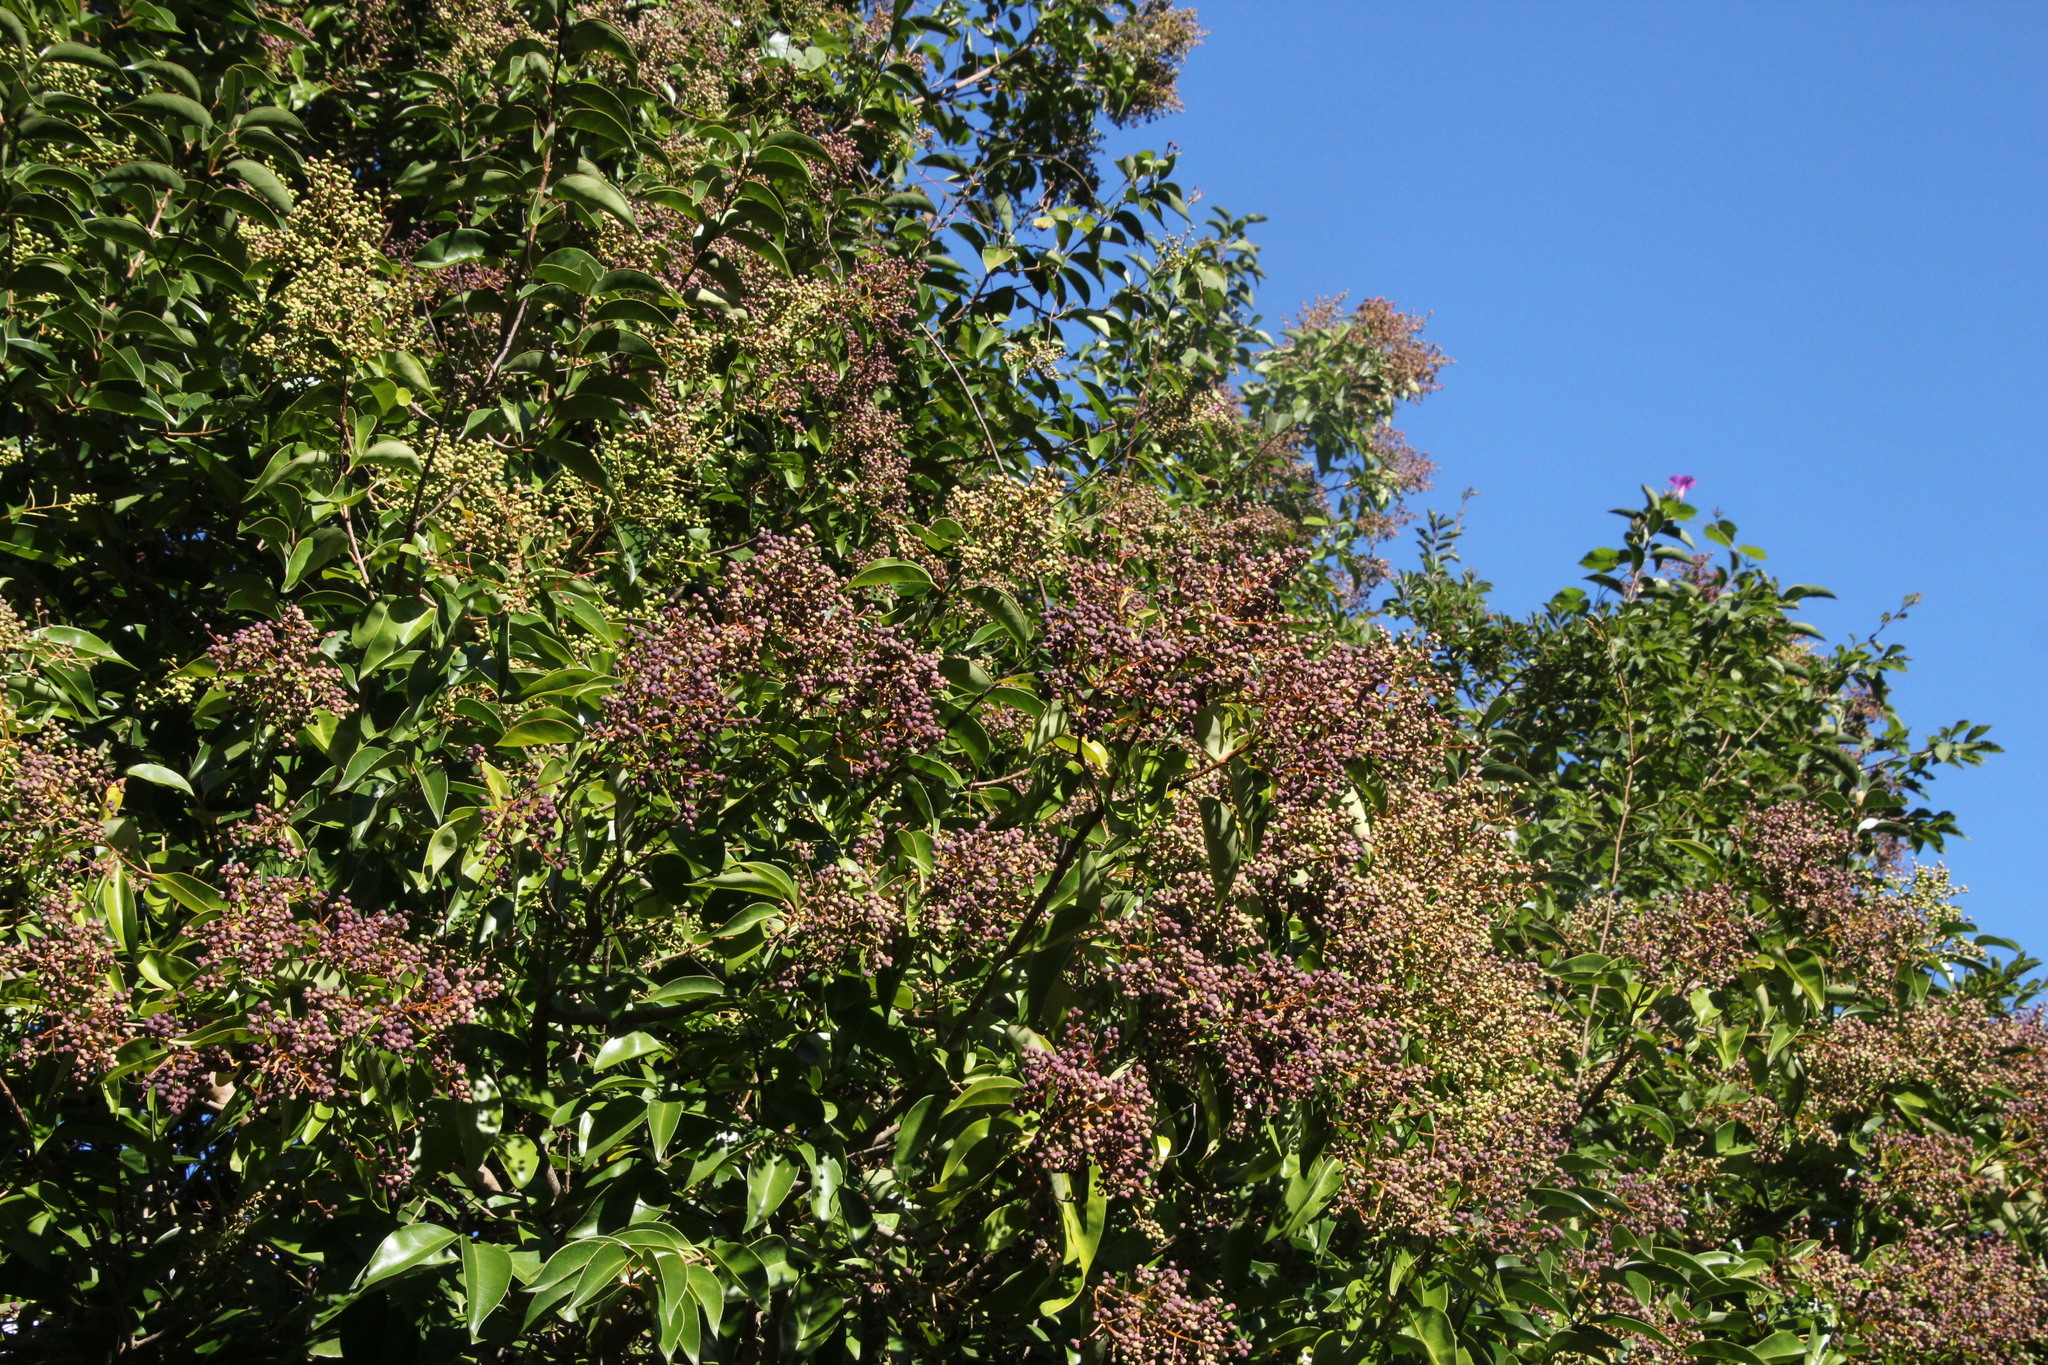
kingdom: Plantae
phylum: Tracheophyta
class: Magnoliopsida
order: Lamiales
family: Oleaceae
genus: Ligustrum
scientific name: Ligustrum lucidum
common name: Glossy privet
